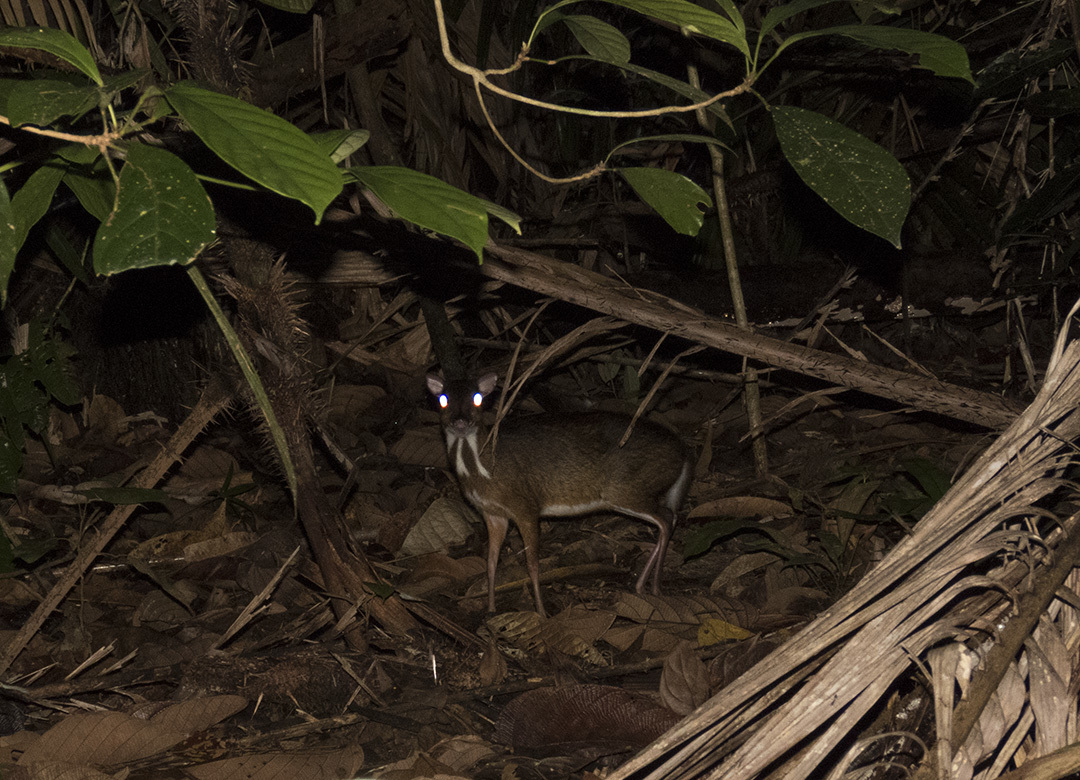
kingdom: Animalia
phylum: Chordata
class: Mammalia
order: Artiodactyla
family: Tragulidae
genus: Tragulus
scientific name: Tragulus kanchil
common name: Lesser mouse-deer
